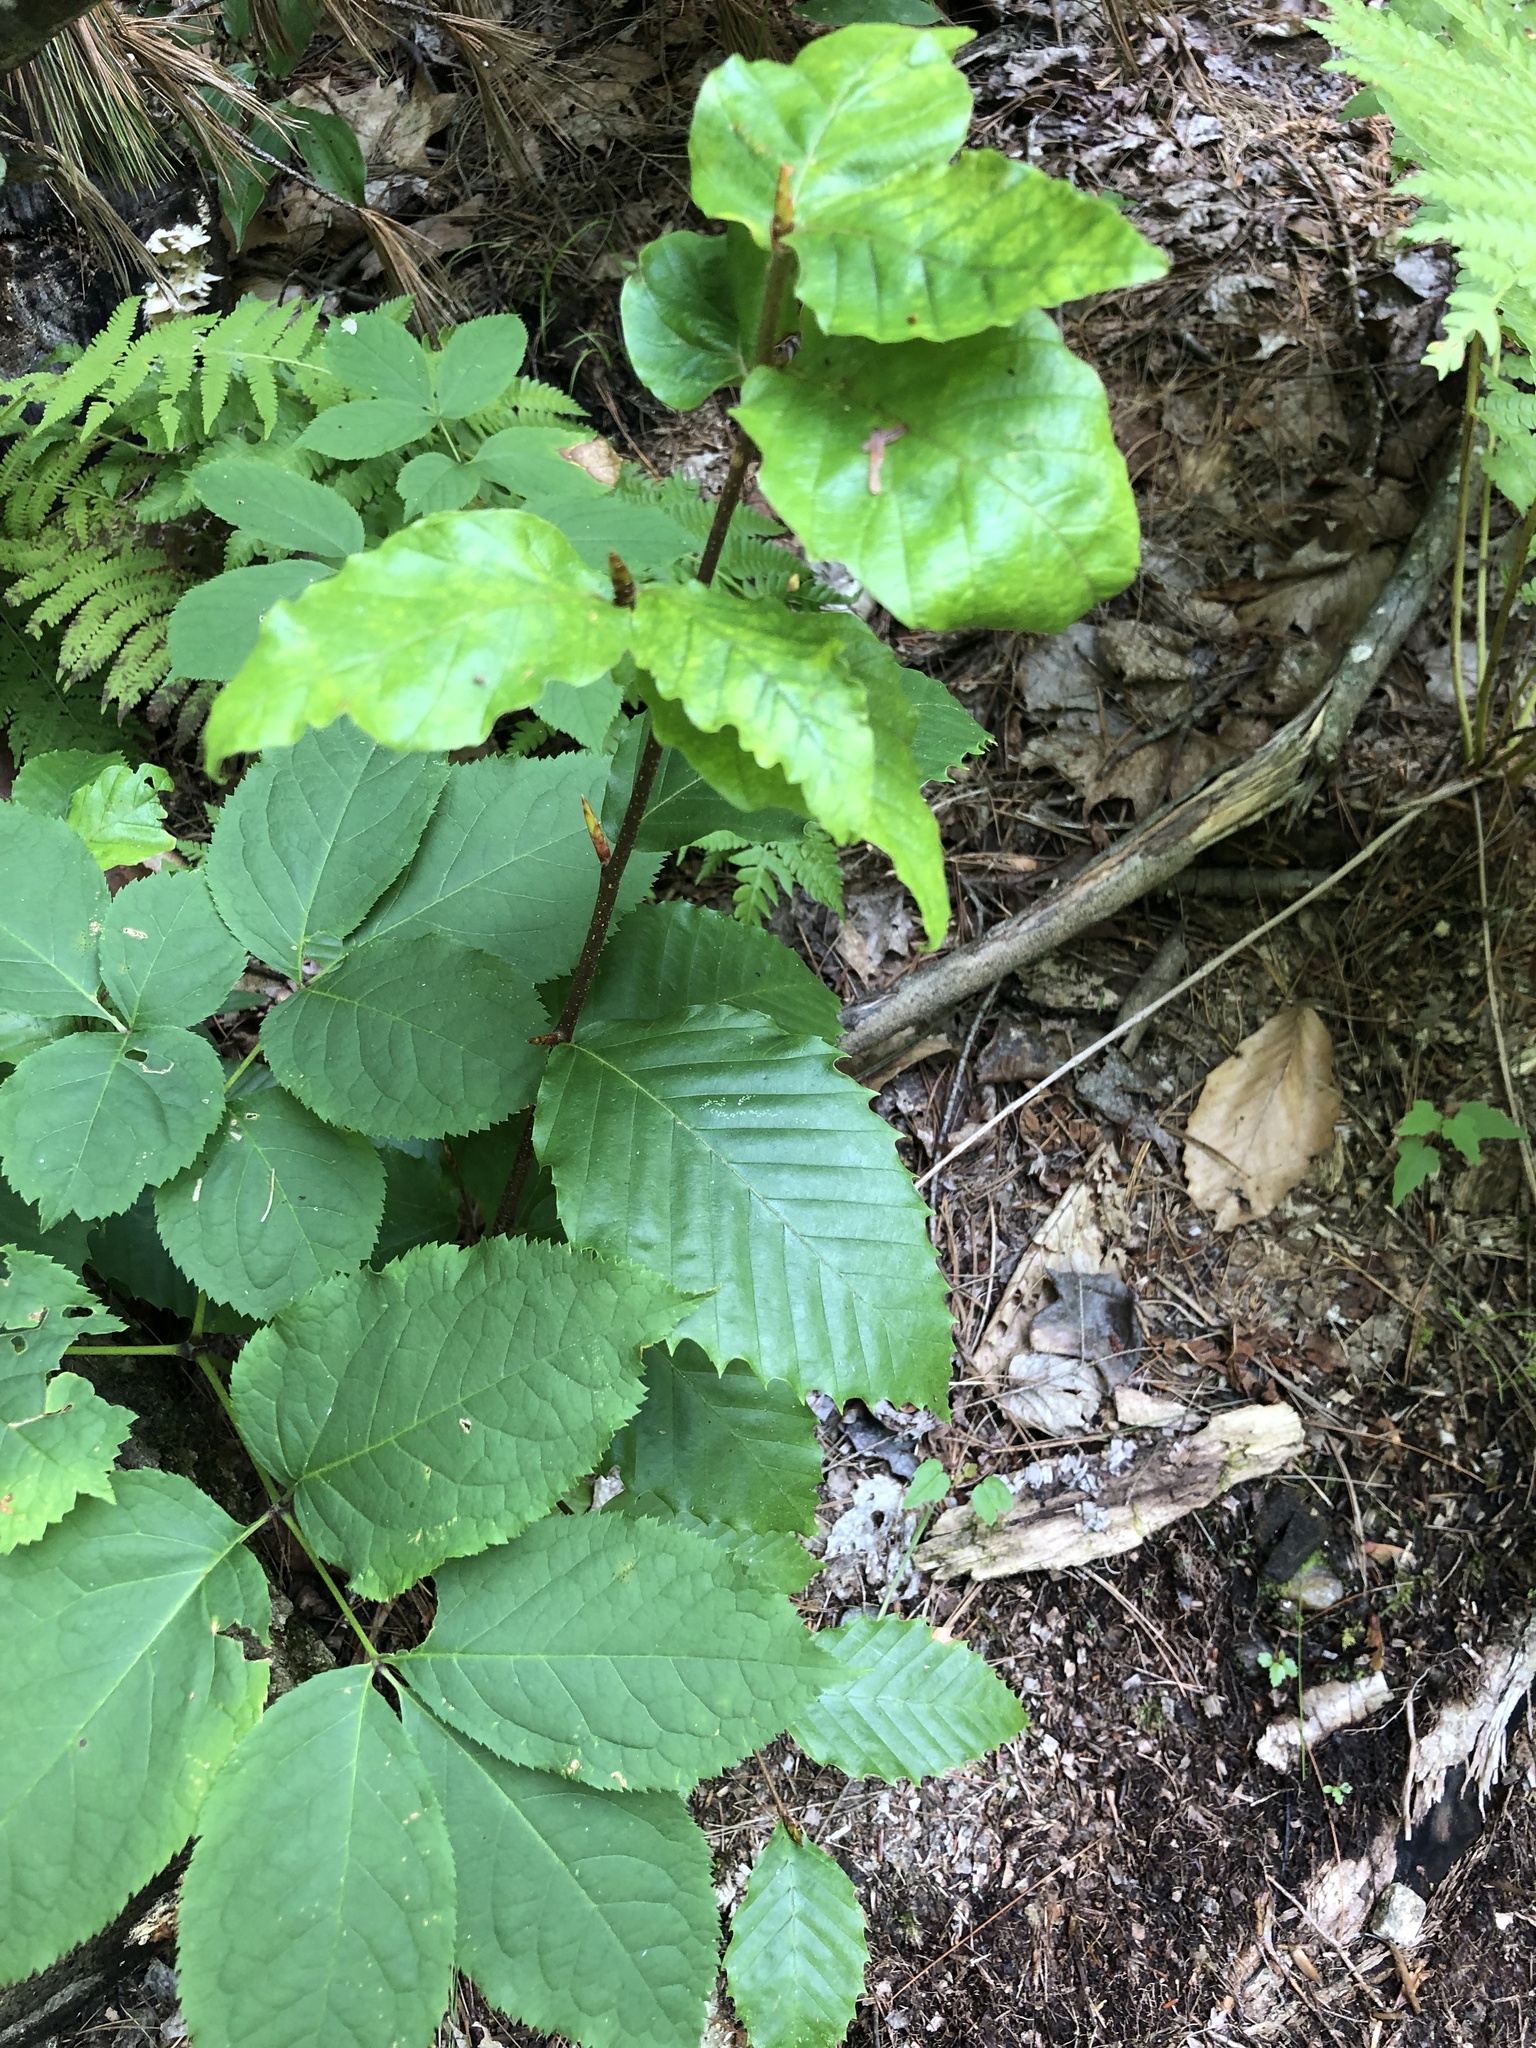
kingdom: Plantae
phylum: Tracheophyta
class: Magnoliopsida
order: Apiales
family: Araliaceae
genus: Aralia
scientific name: Aralia nudicaulis
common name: Wild sarsaparilla
